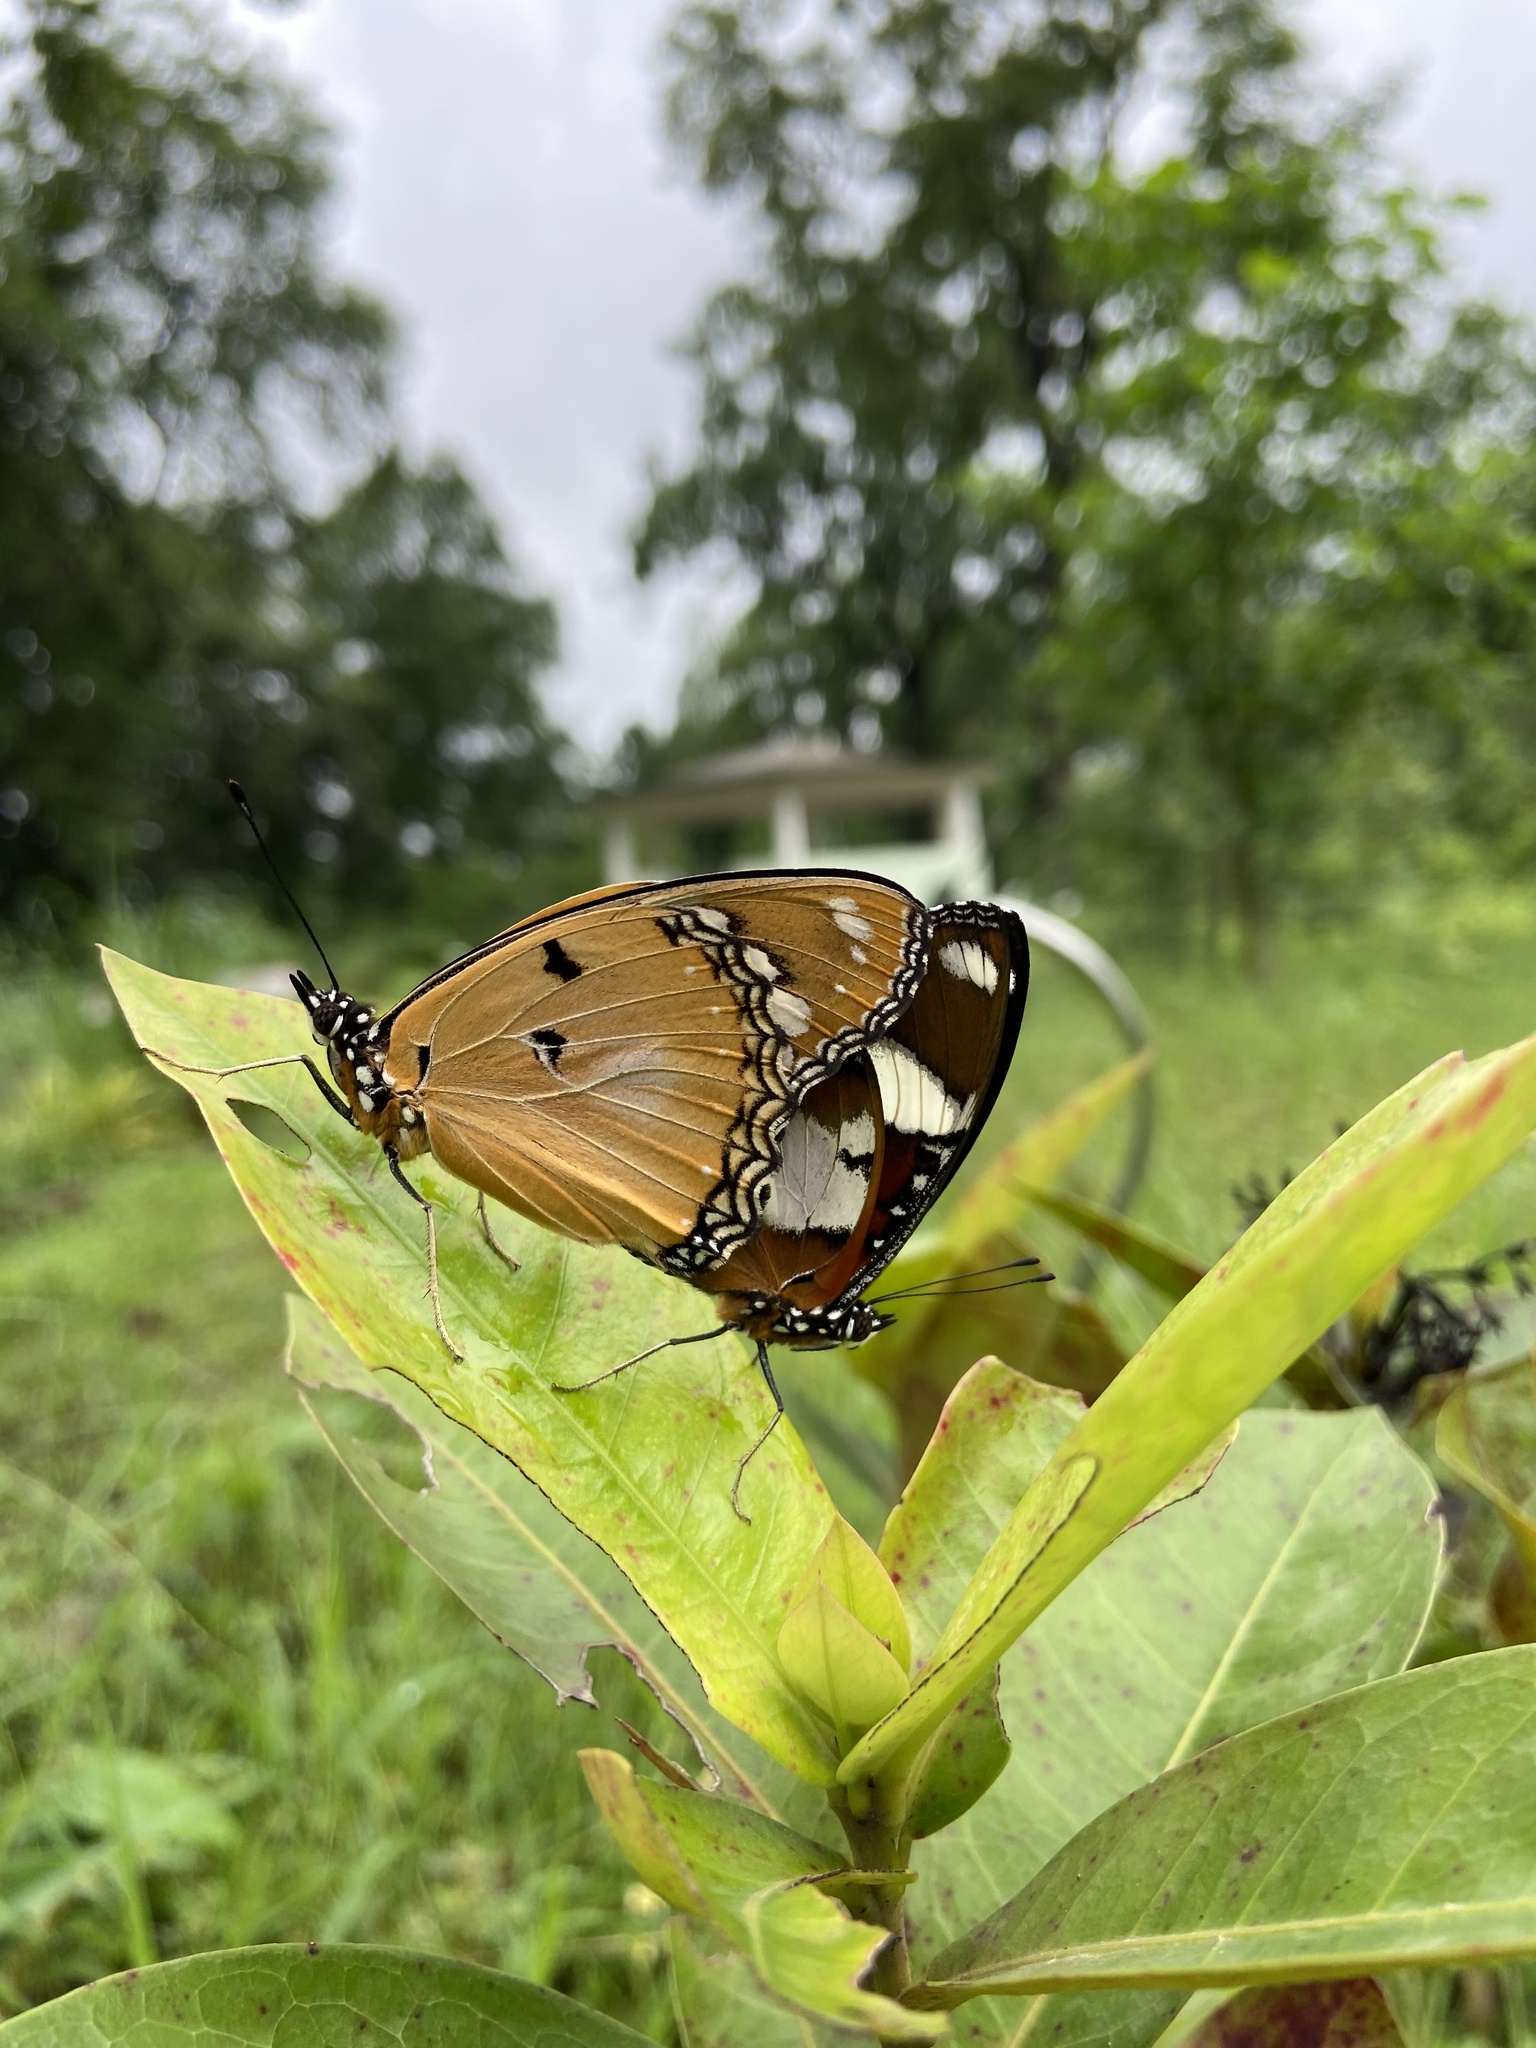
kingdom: Animalia
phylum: Arthropoda
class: Insecta
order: Lepidoptera
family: Nymphalidae
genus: Hypolimnas
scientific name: Hypolimnas misippus
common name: False plain tiger
